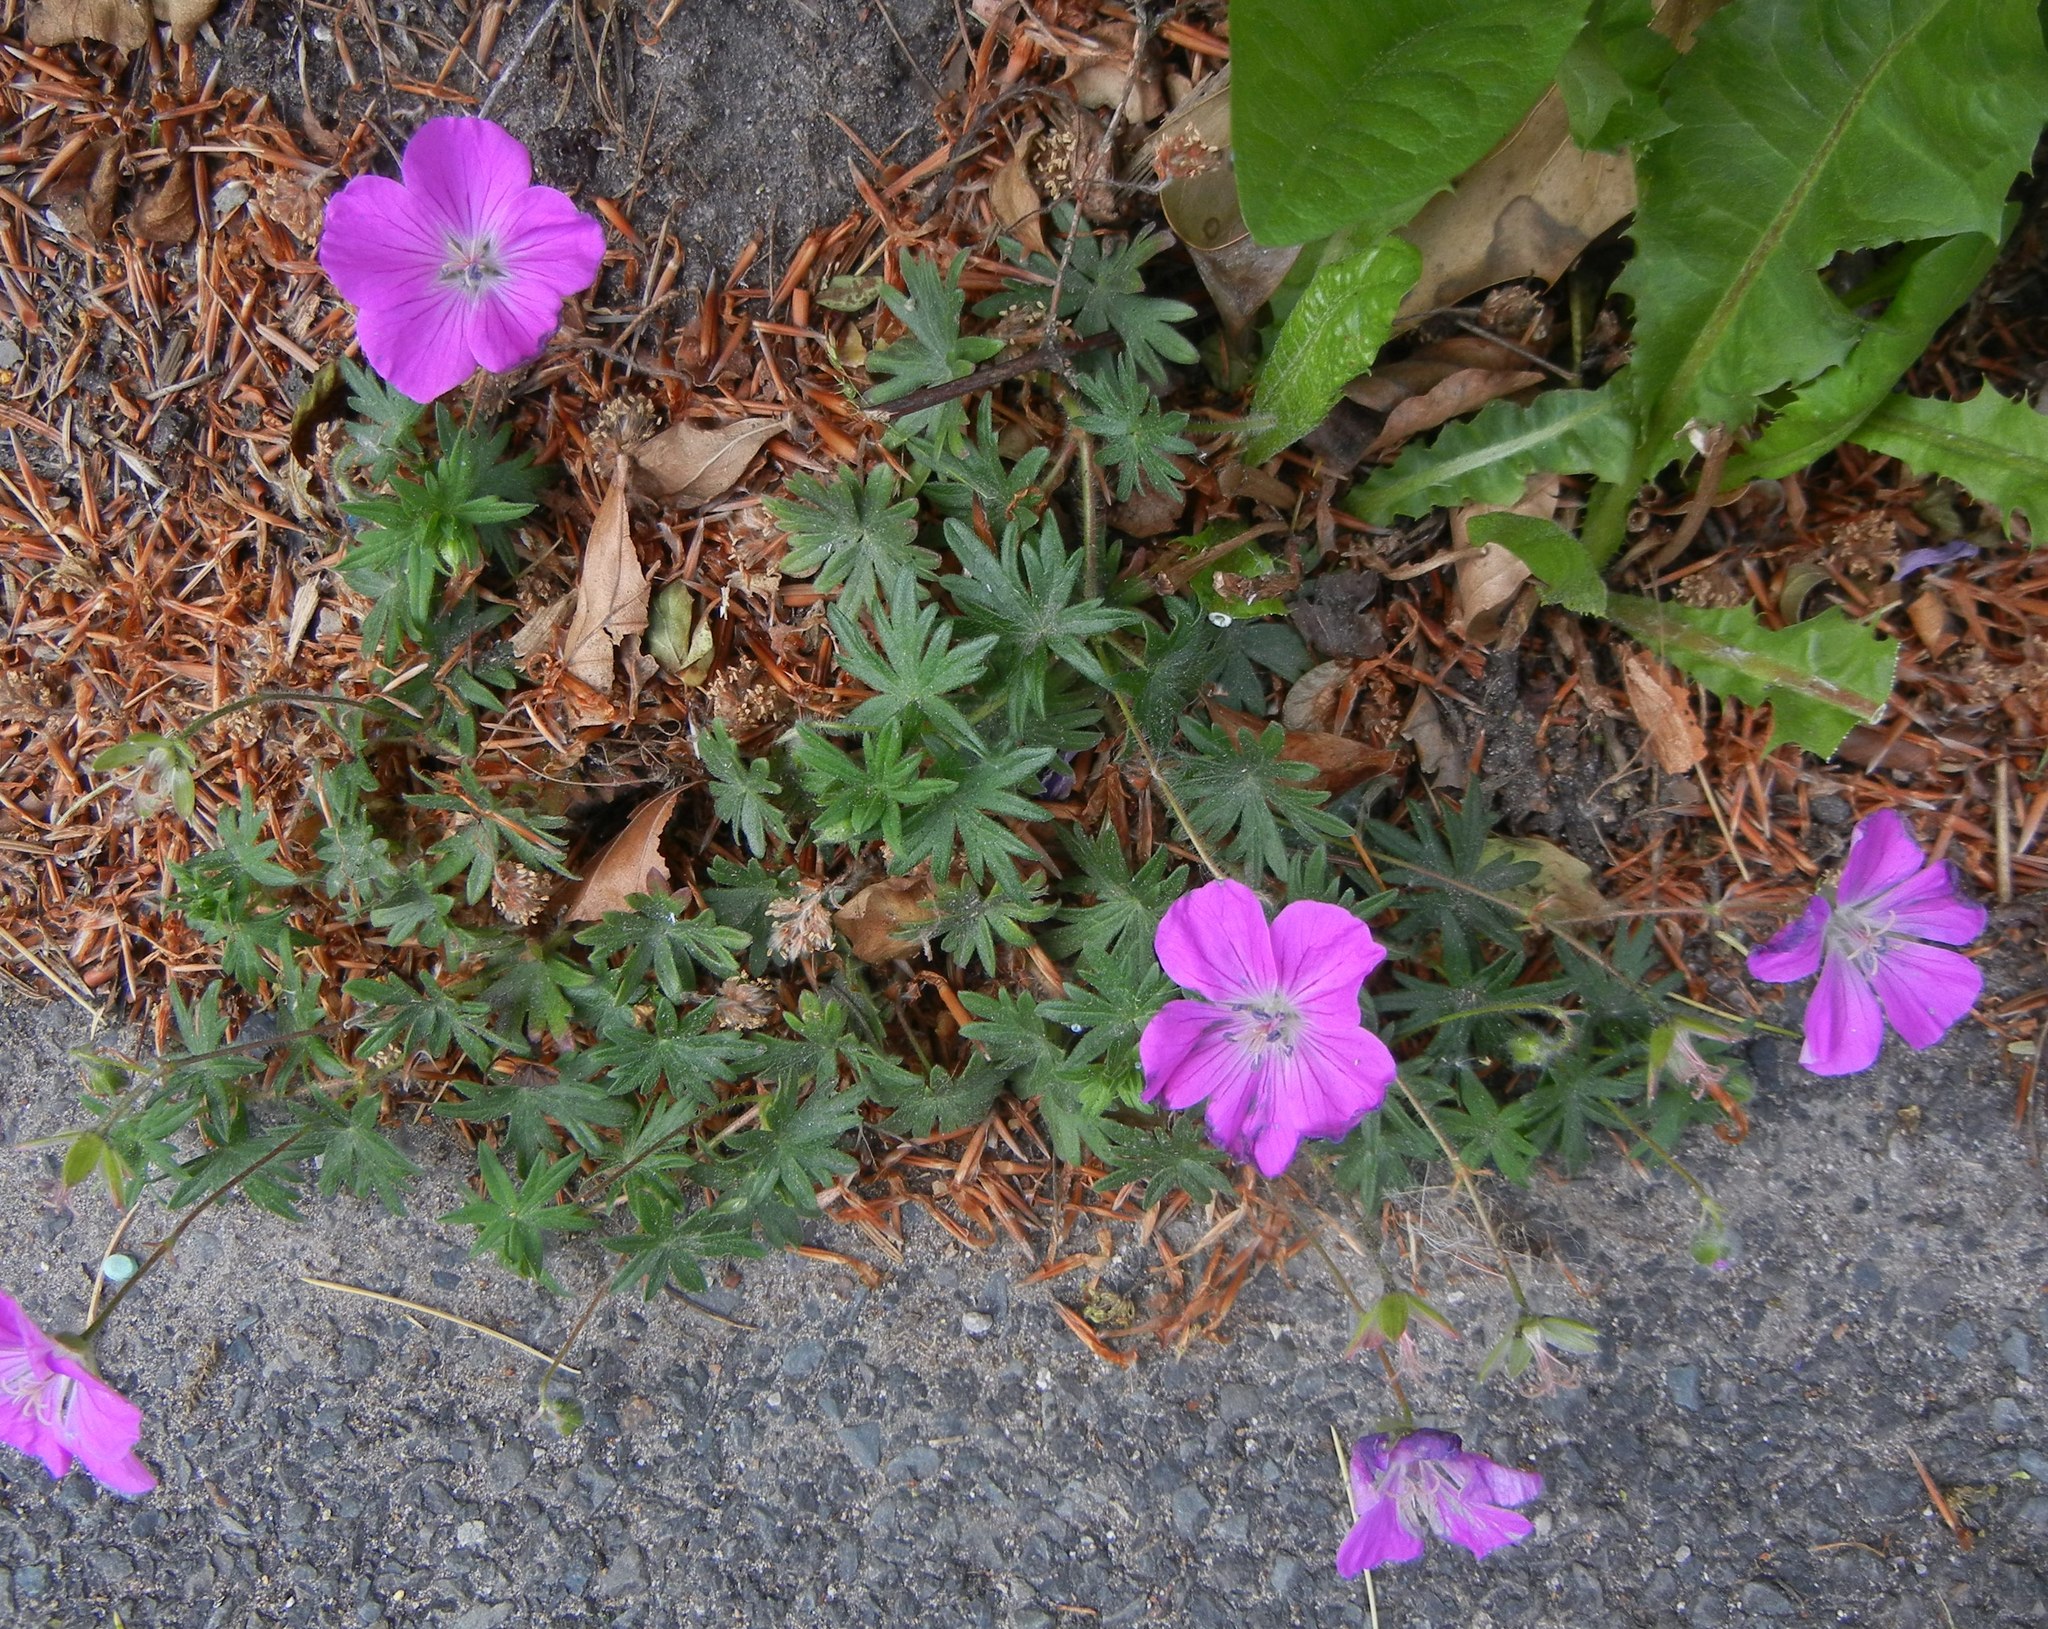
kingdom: Plantae
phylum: Tracheophyta
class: Magnoliopsida
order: Geraniales
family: Geraniaceae
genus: Geranium
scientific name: Geranium sanguineum
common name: Bloody crane's-bill
